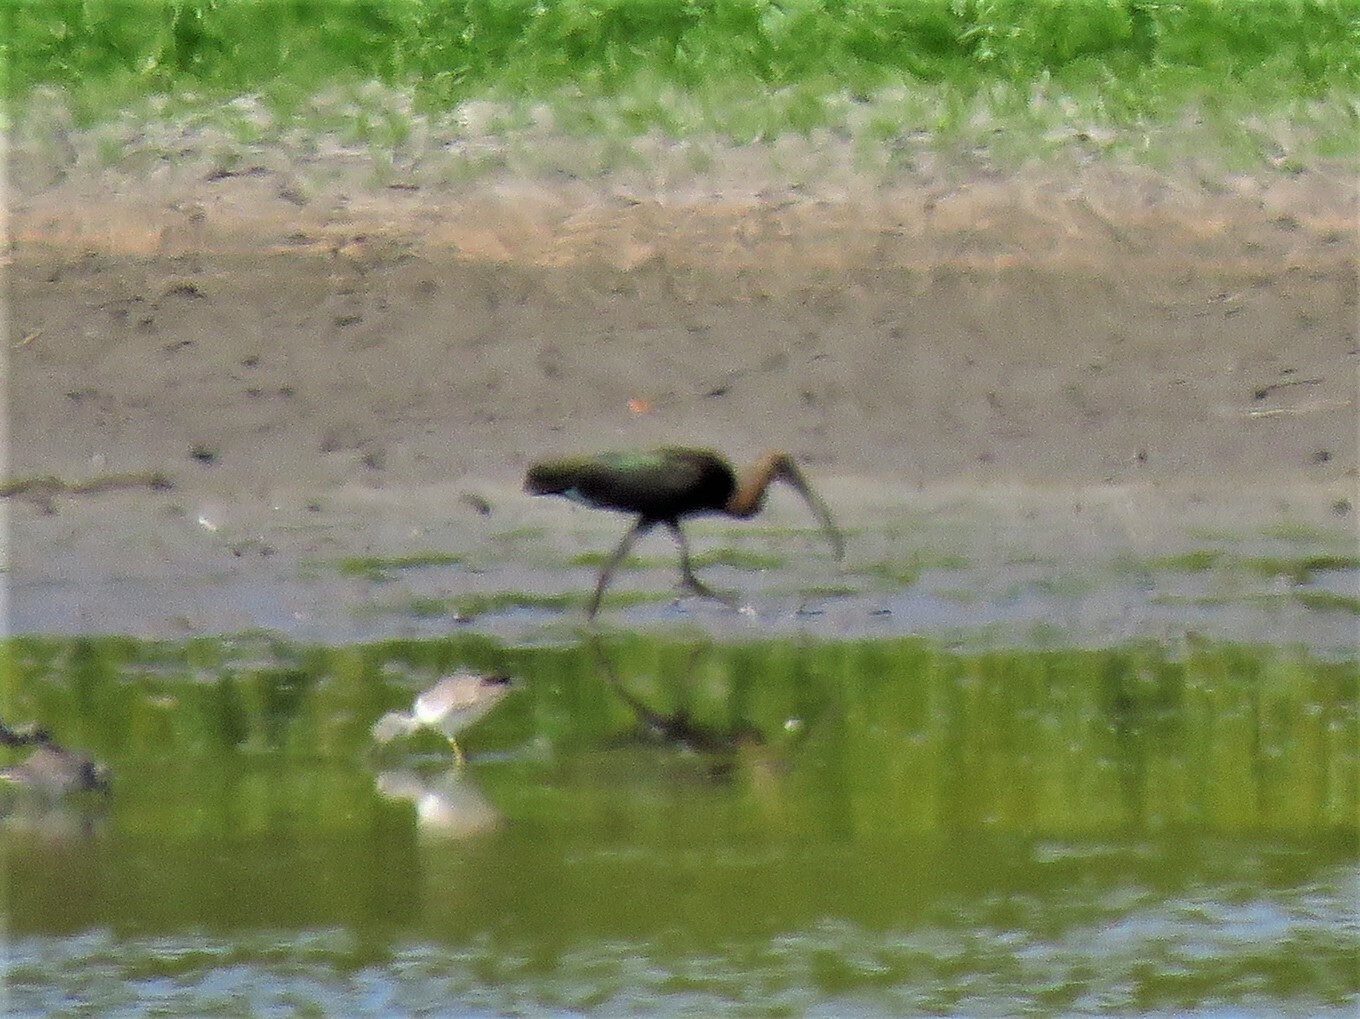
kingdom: Animalia
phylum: Chordata
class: Aves
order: Pelecaniformes
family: Threskiornithidae
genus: Plegadis
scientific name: Plegadis chihi
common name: White-faced ibis
